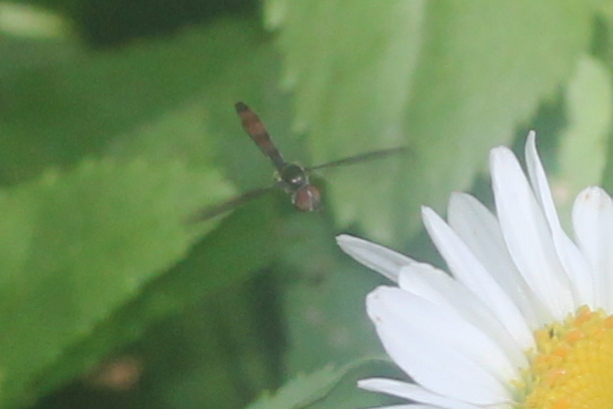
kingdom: Animalia
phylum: Arthropoda
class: Insecta
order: Diptera
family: Syrphidae
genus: Ocyptamus
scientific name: Ocyptamus fuscipennis
